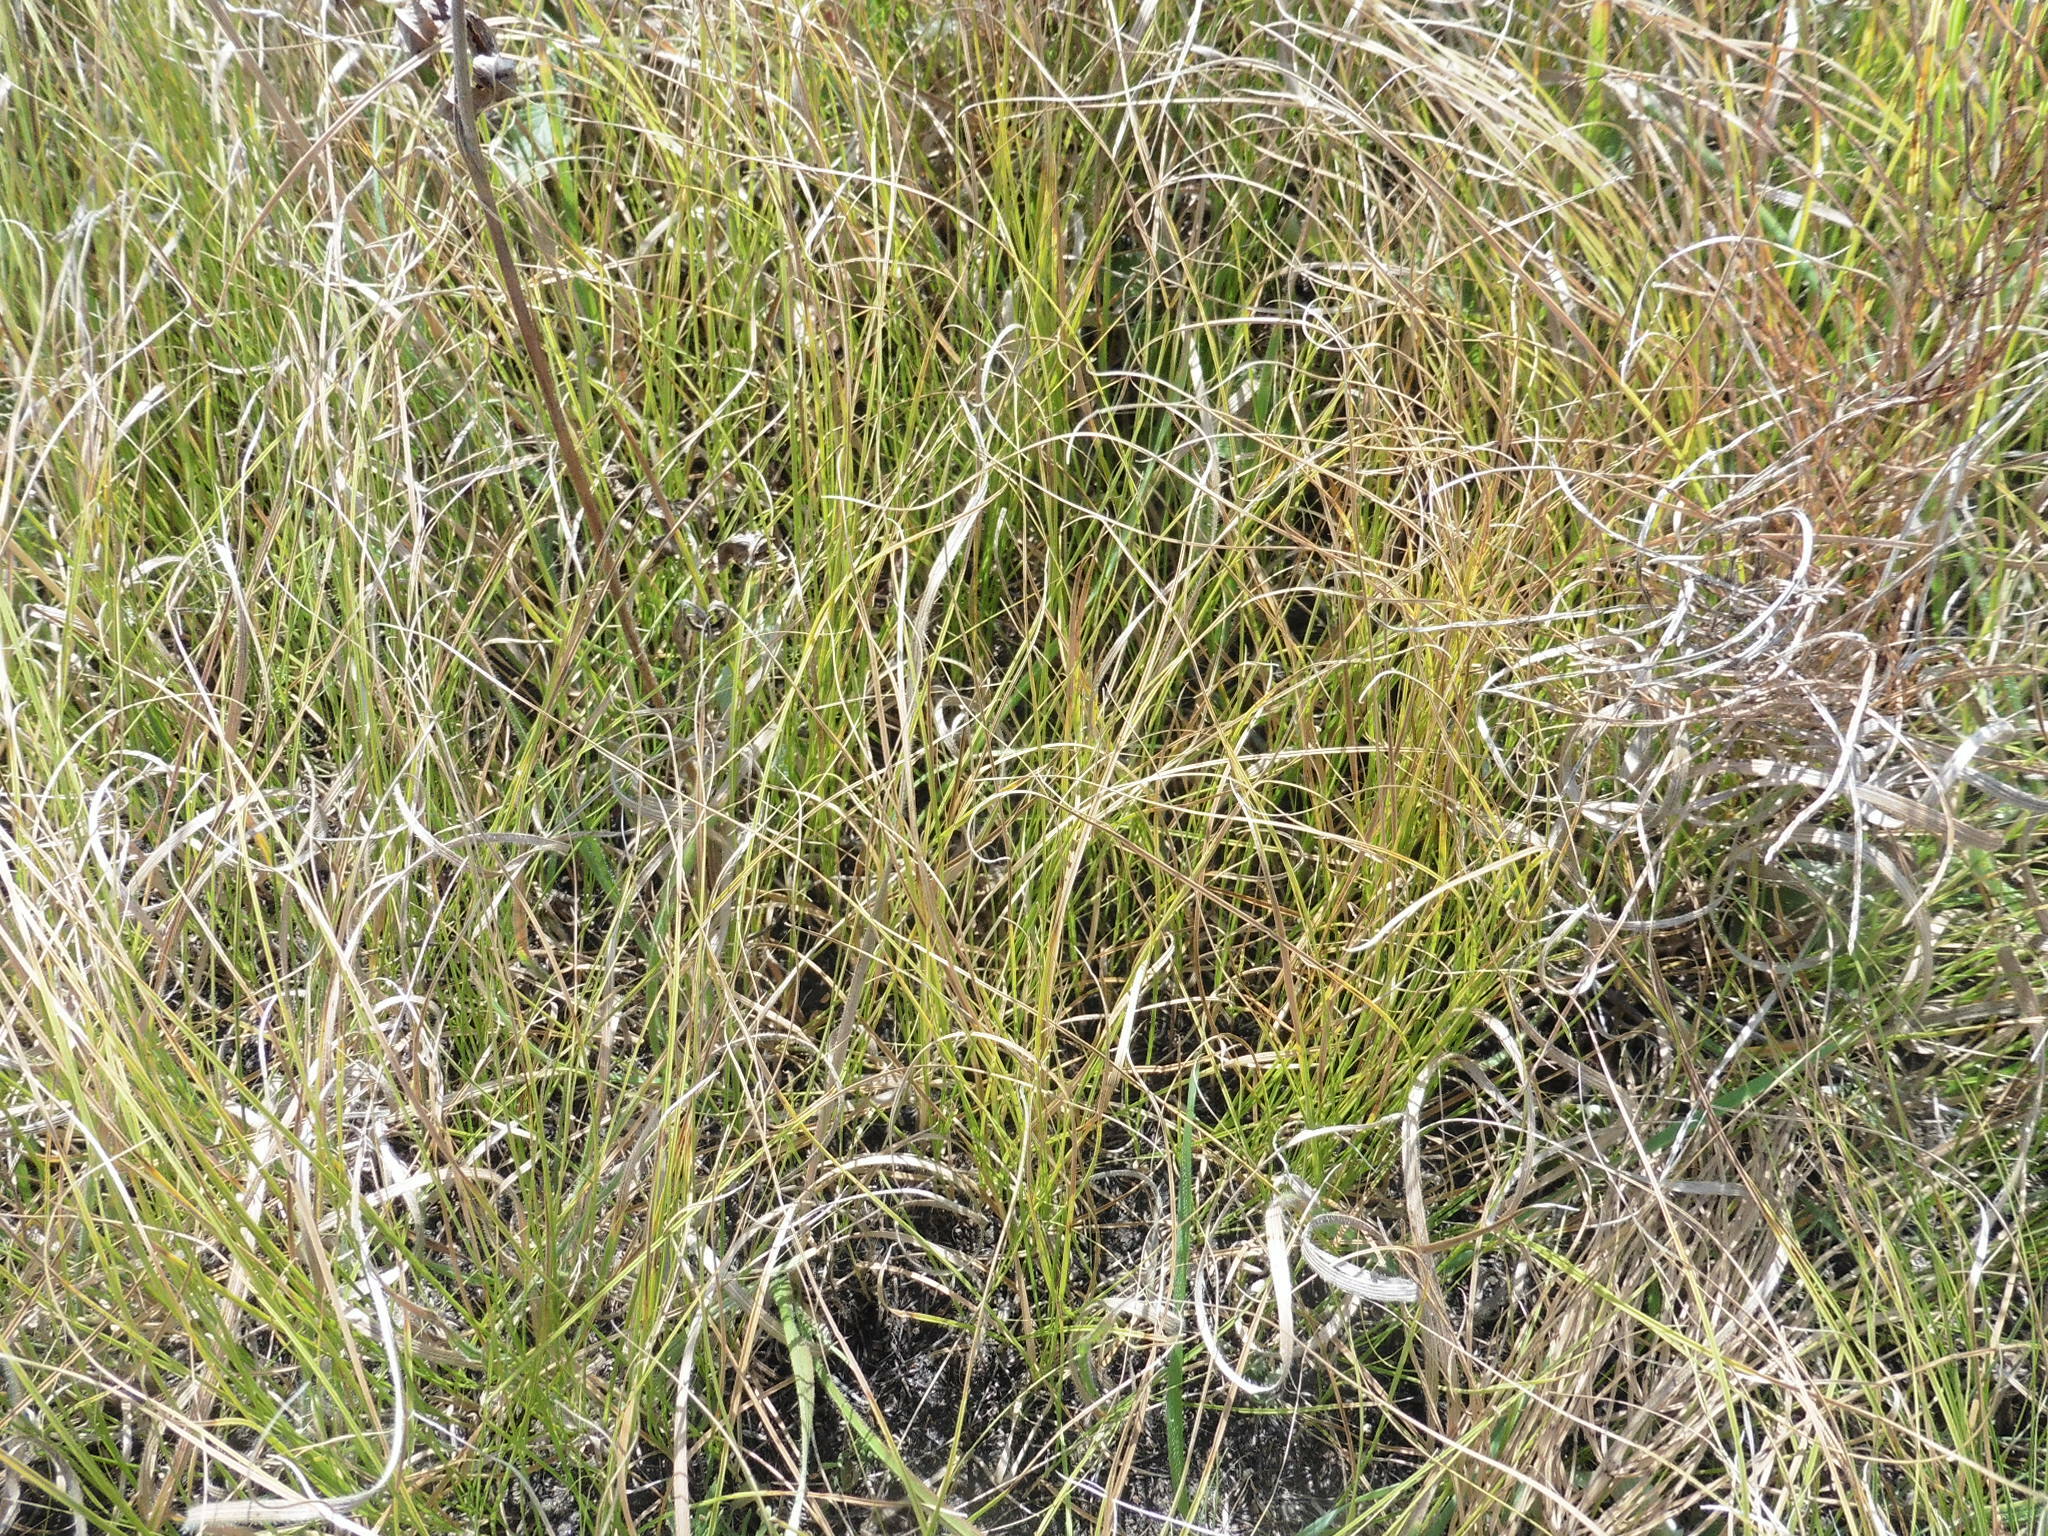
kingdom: Plantae
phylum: Tracheophyta
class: Liliopsida
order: Poales
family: Cyperaceae
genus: Carex
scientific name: Carex praecox
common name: Early sedge
